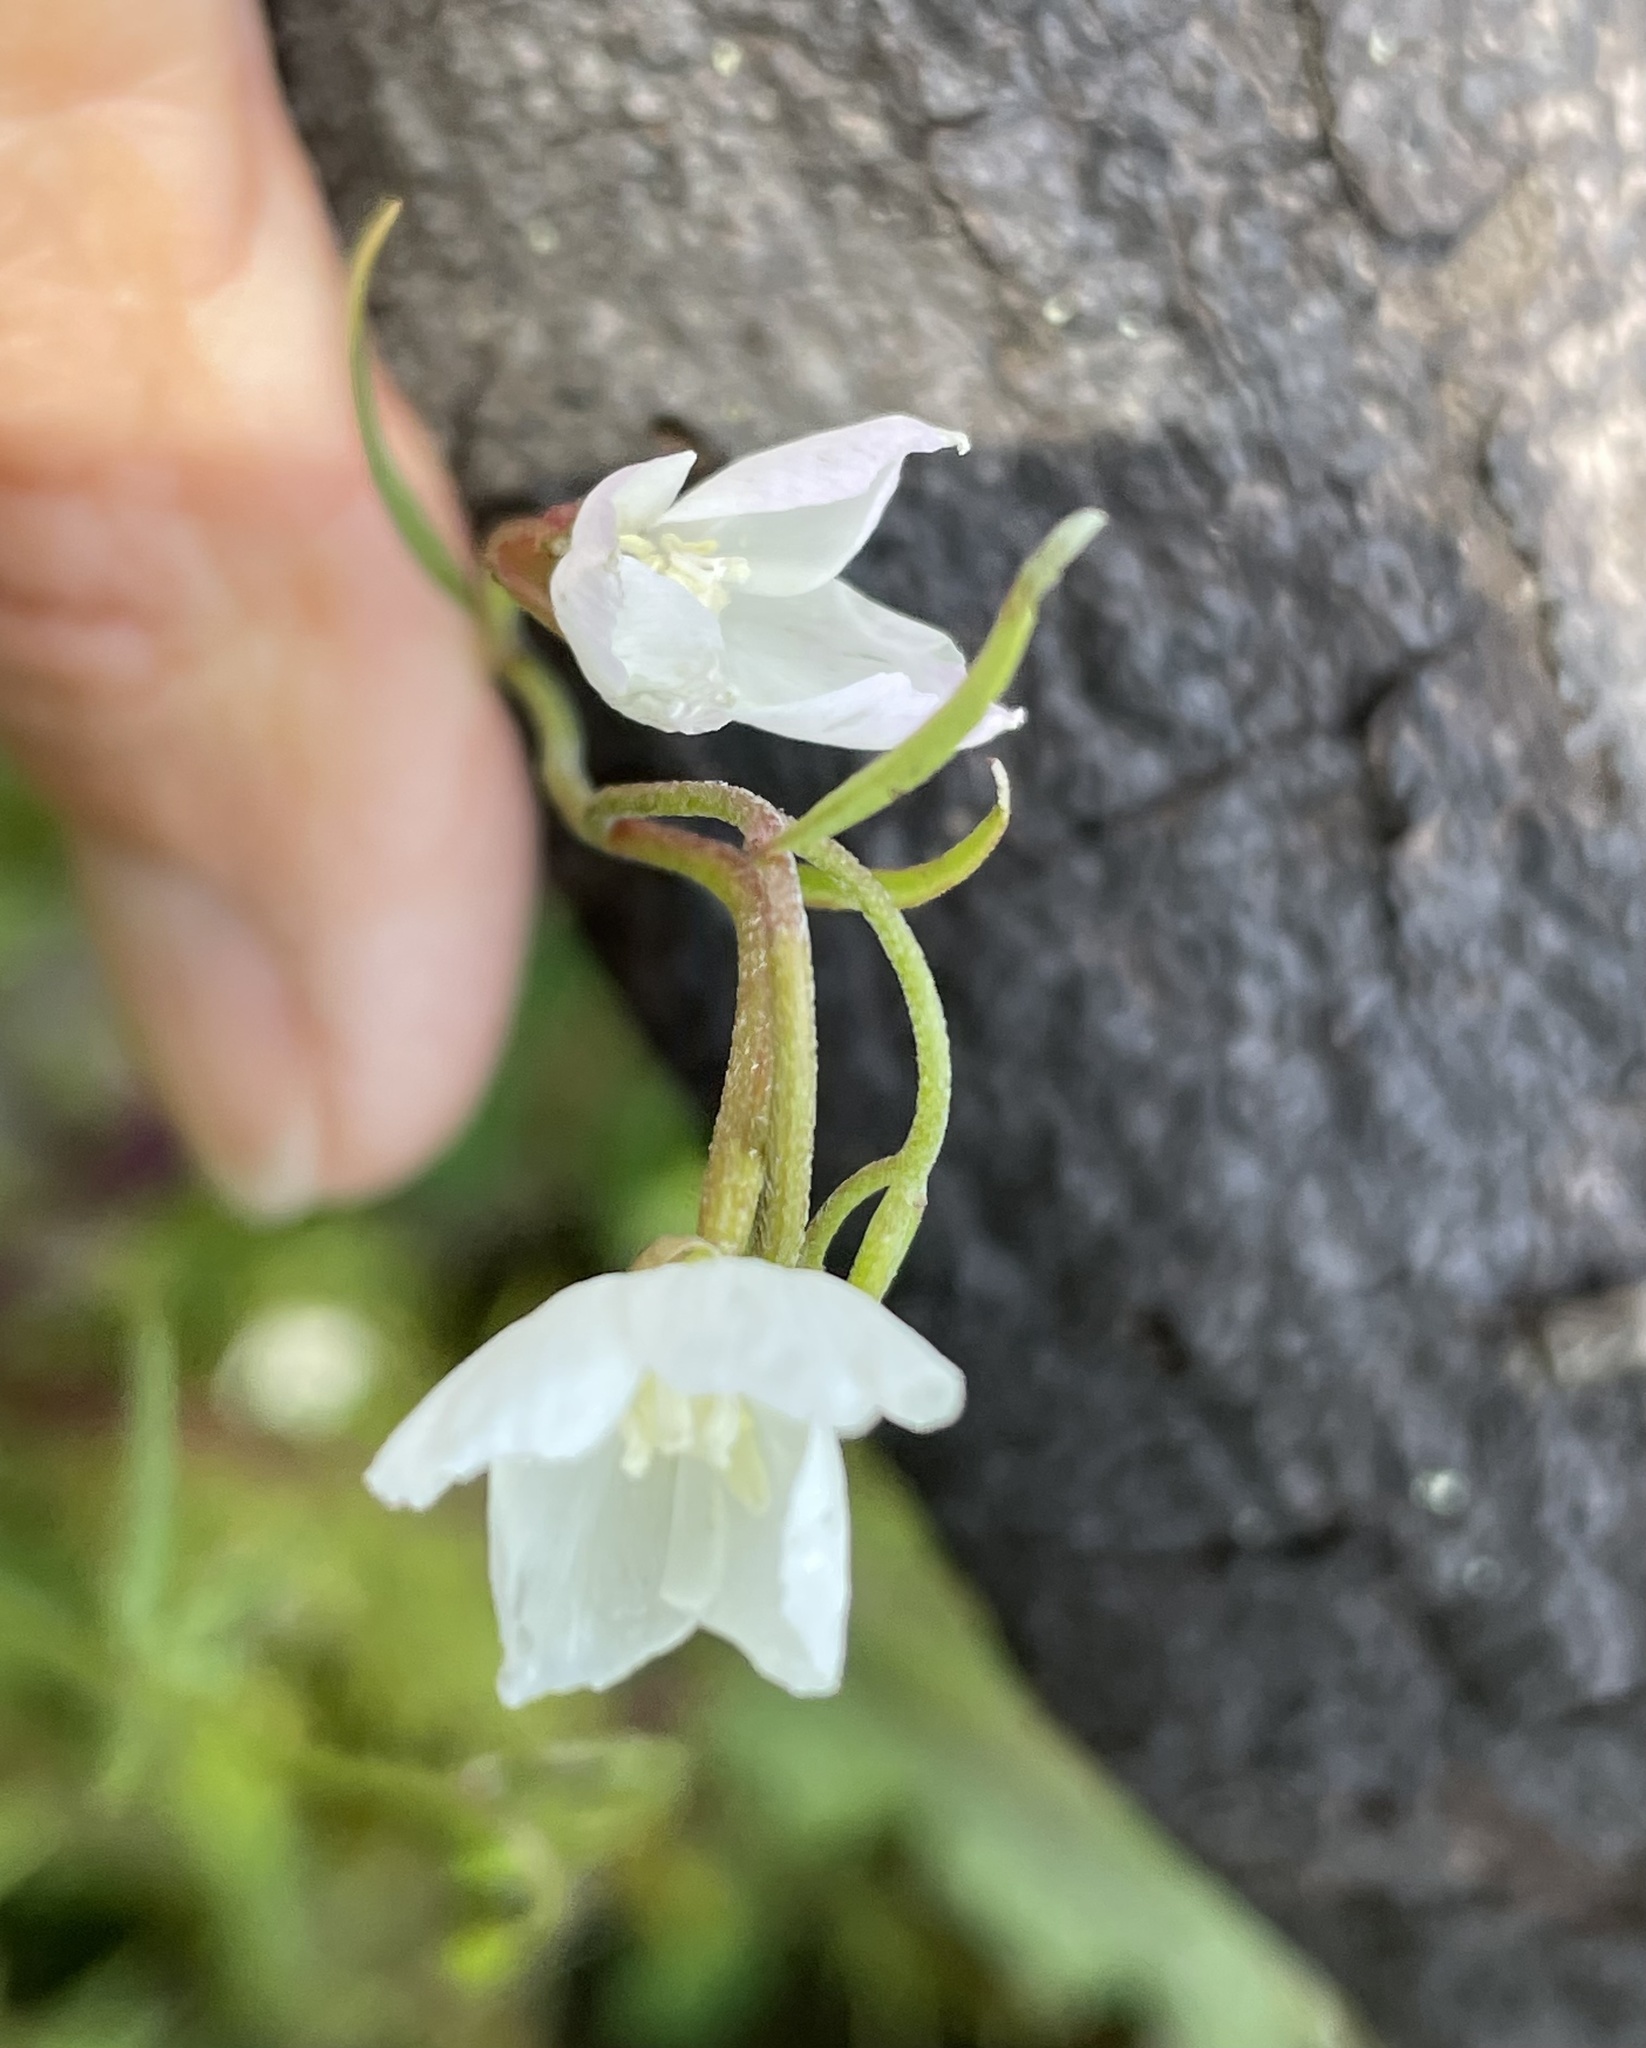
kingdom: Plantae
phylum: Tracheophyta
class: Magnoliopsida
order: Myrtales
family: Onagraceae
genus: Clarkia
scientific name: Clarkia epilobioides
